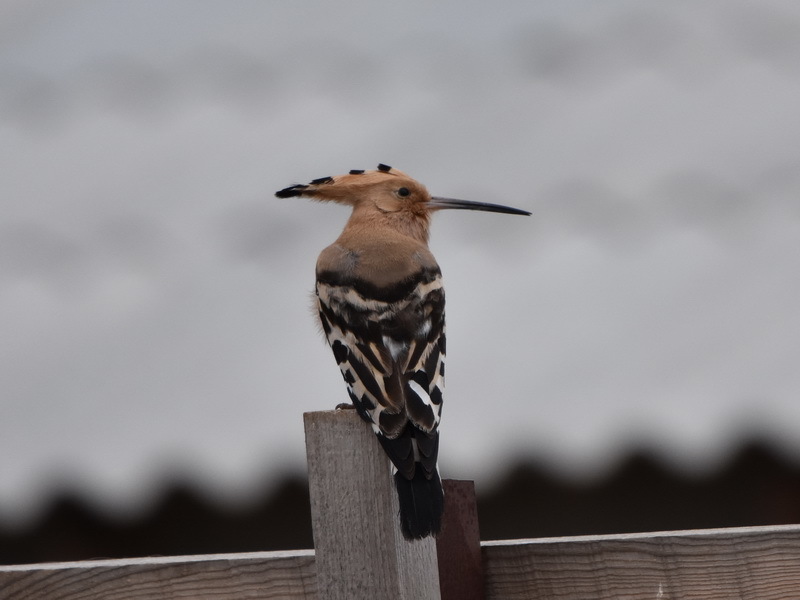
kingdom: Animalia
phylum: Chordata
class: Aves
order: Bucerotiformes
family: Upupidae
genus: Upupa
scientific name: Upupa epops
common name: Eurasian hoopoe
